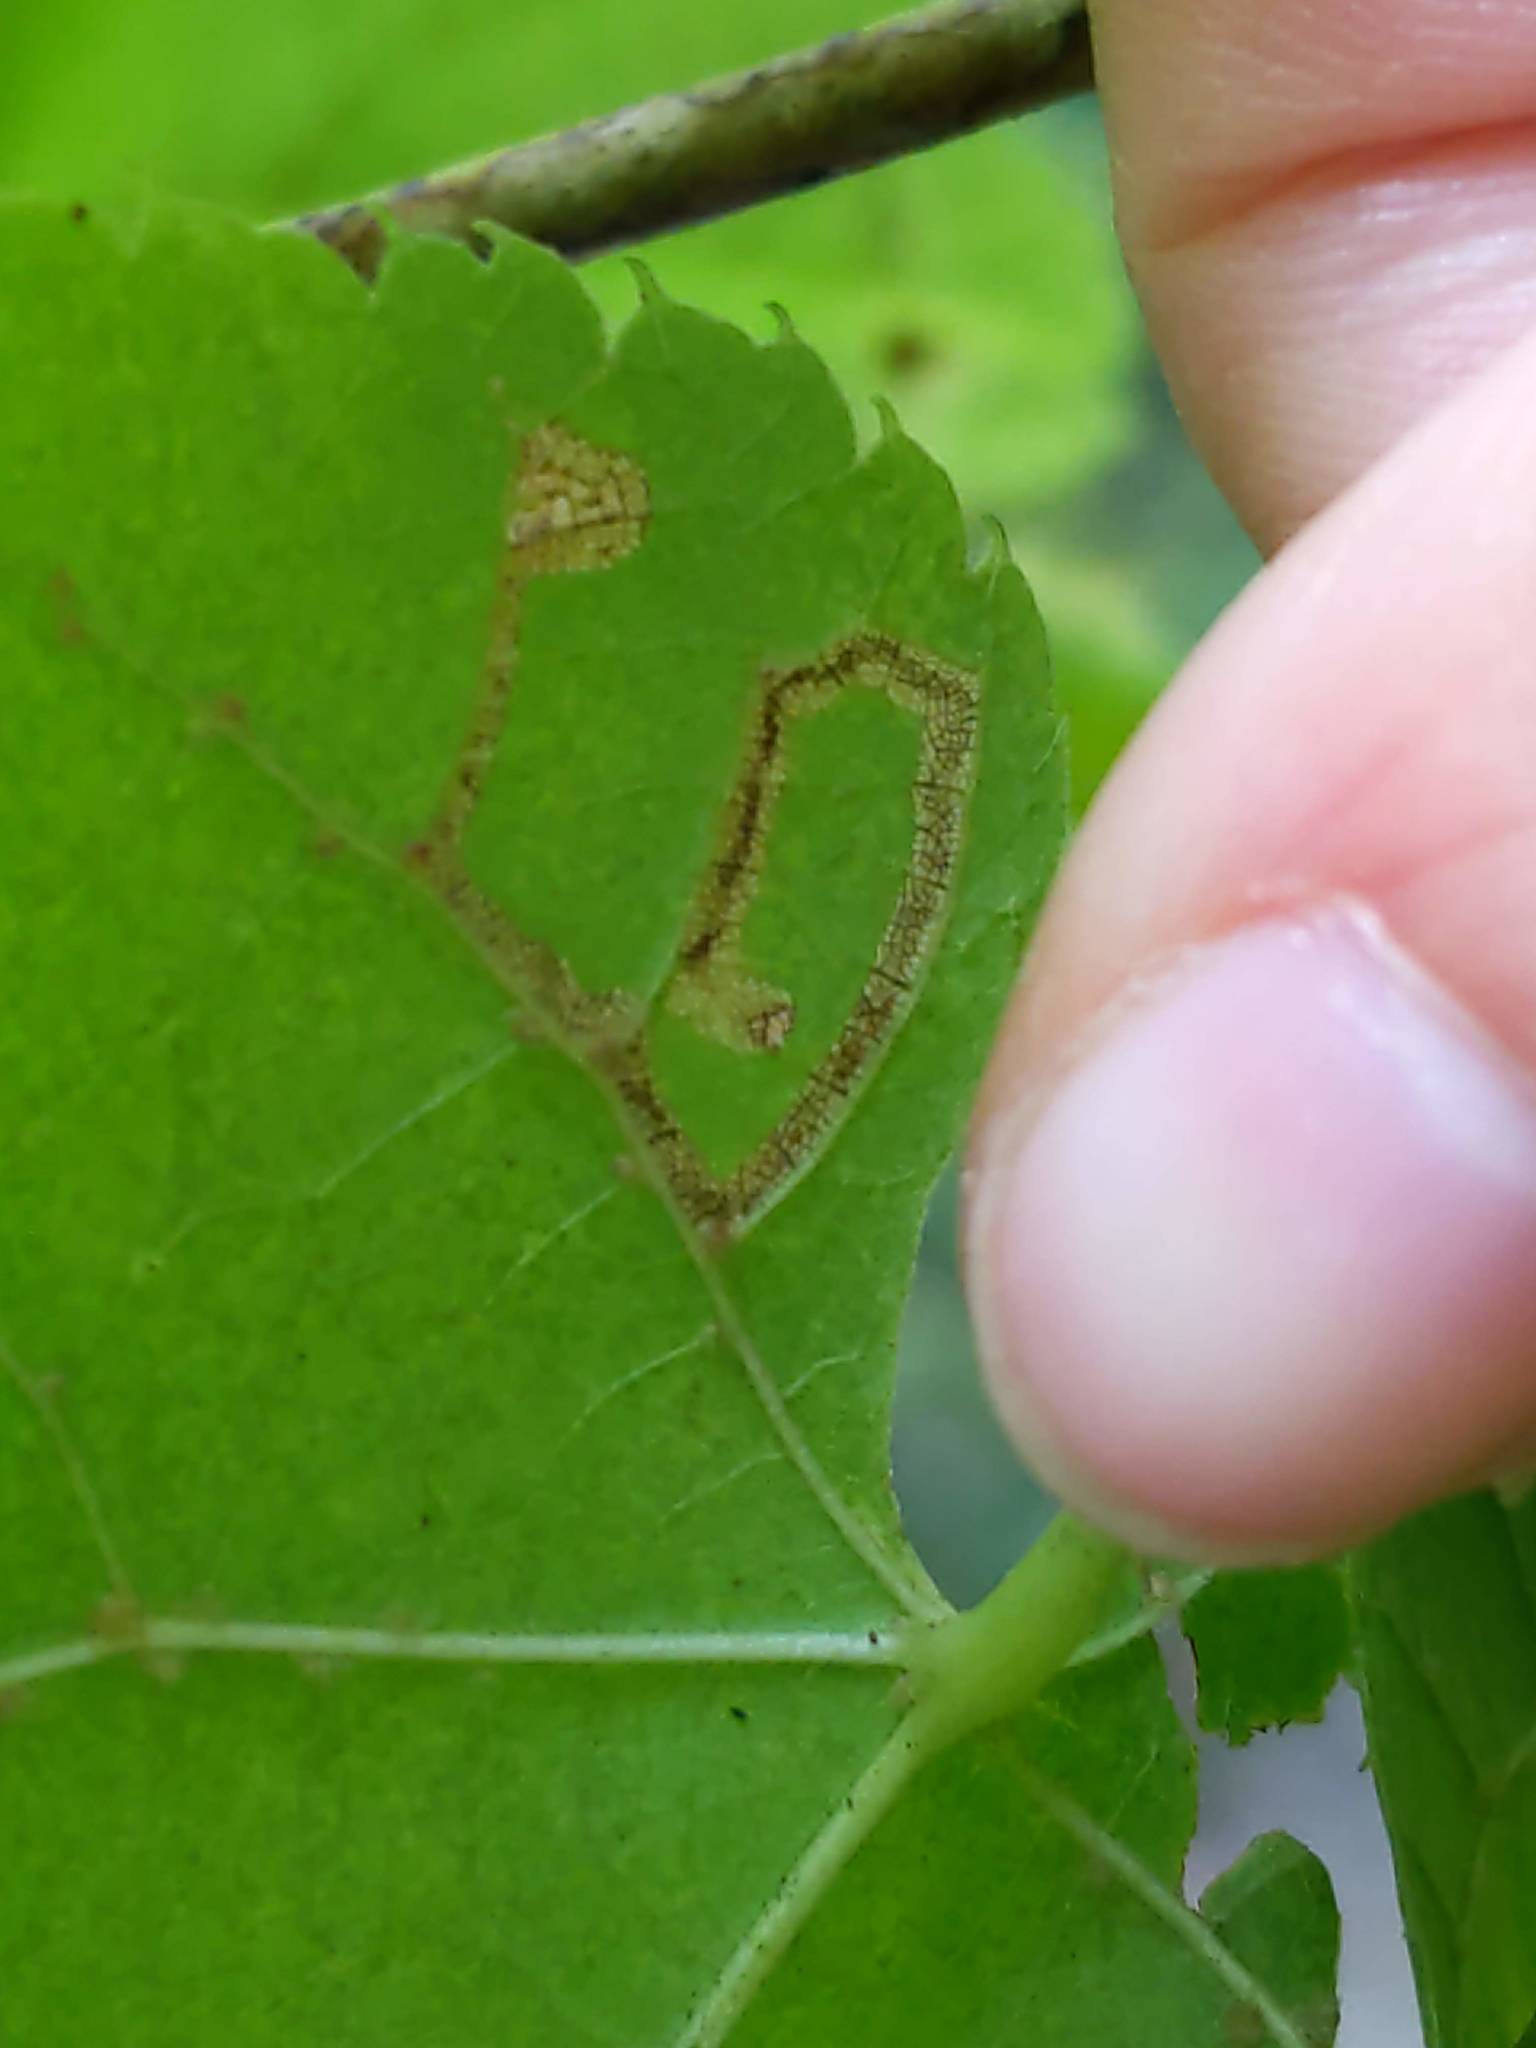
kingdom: Animalia
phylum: Arthropoda
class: Insecta
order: Lepidoptera
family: Nepticulidae
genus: Stigmella
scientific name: Stigmella tiliella
